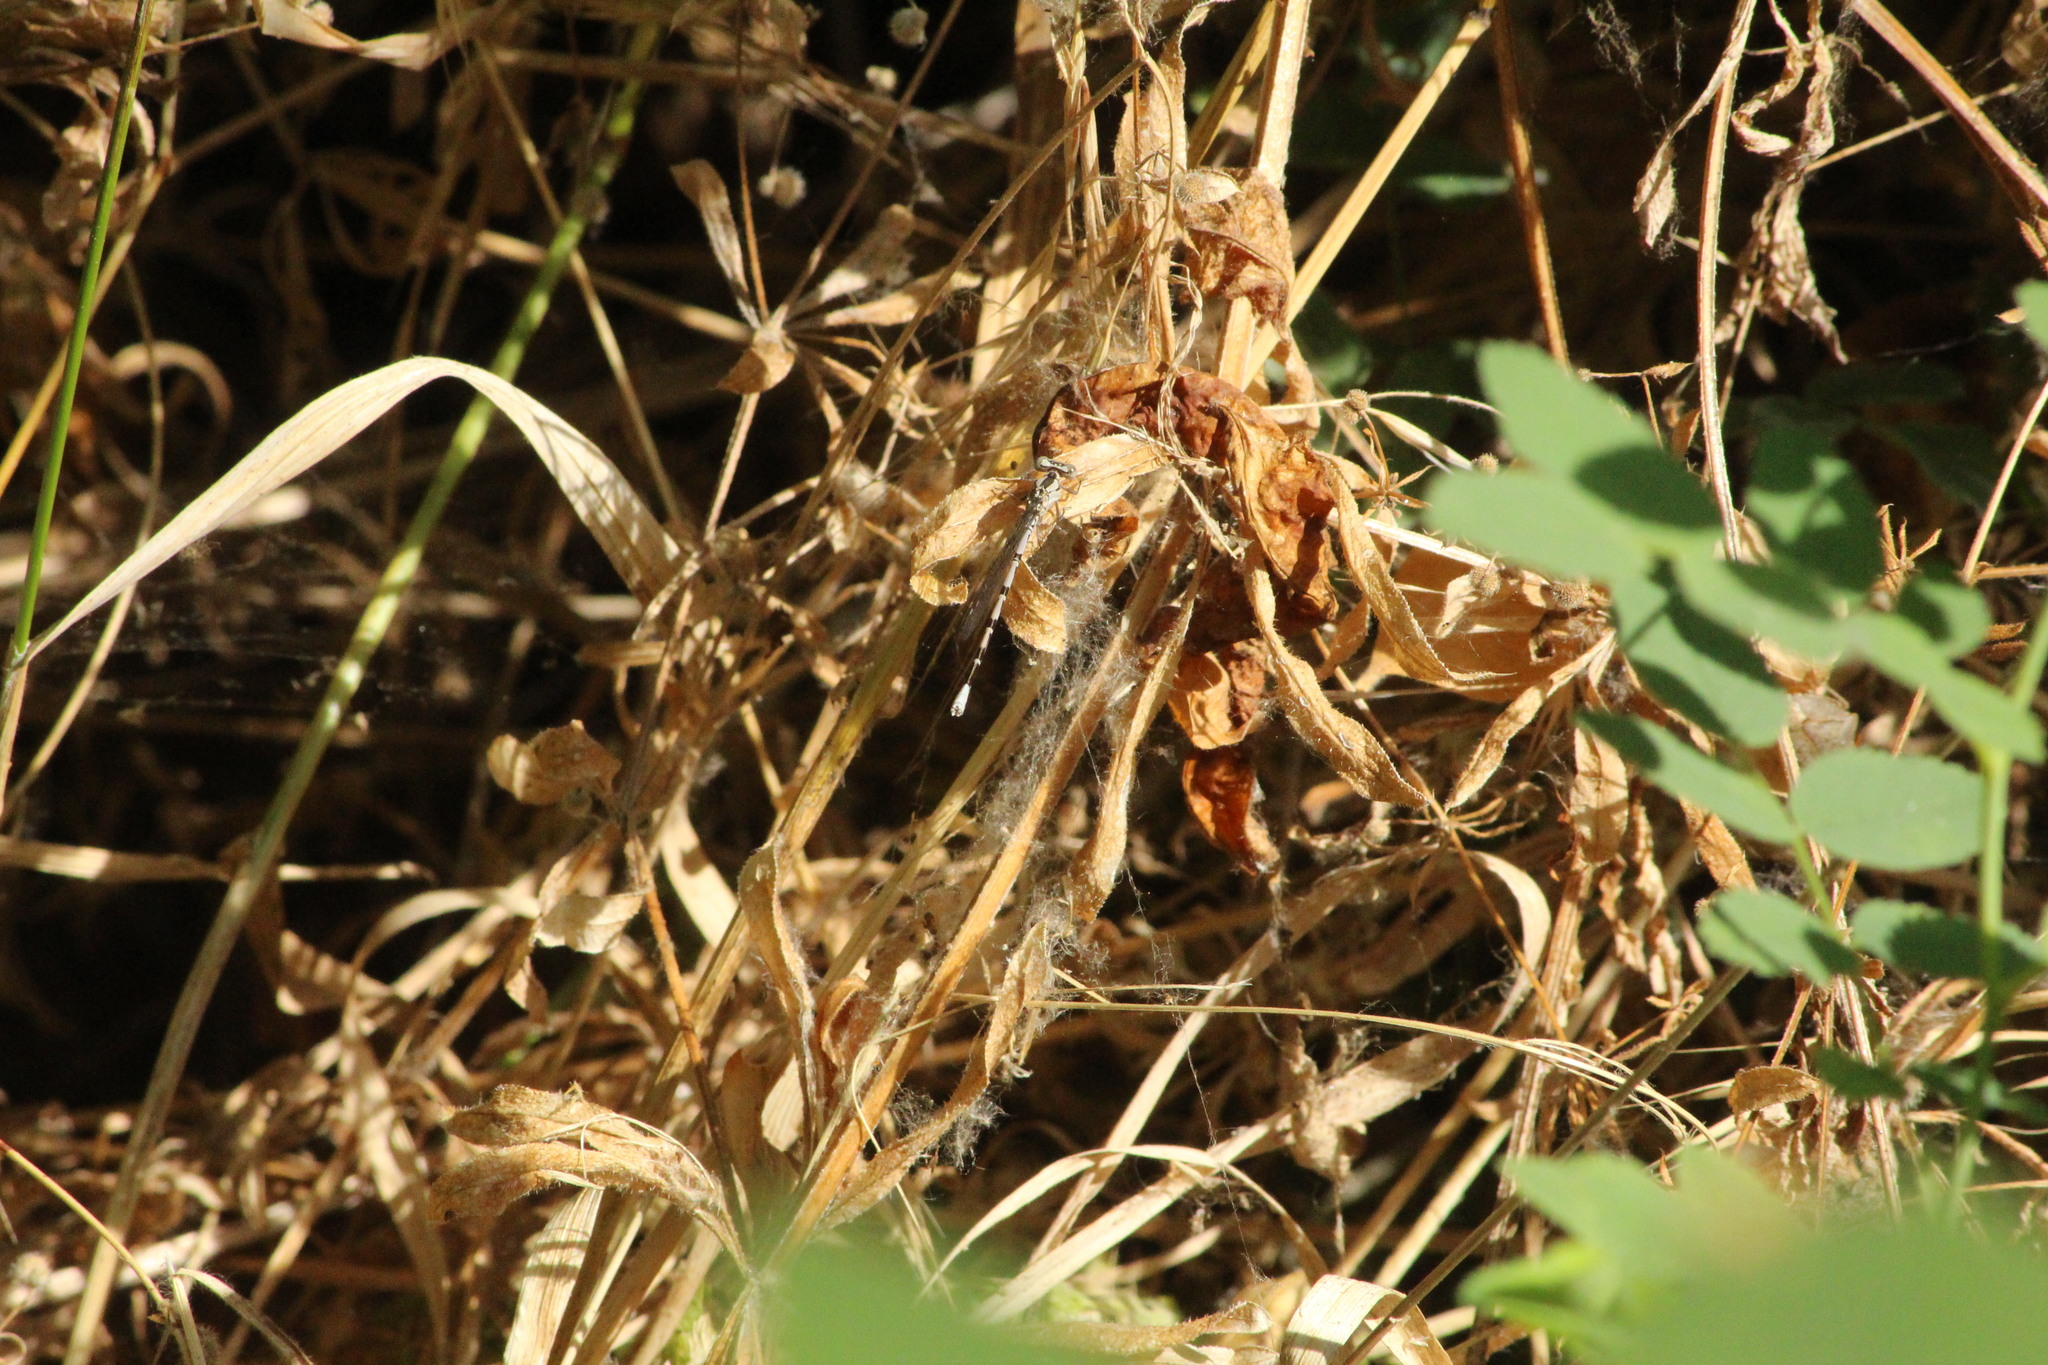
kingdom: Animalia
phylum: Arthropoda
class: Insecta
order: Odonata
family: Coenagrionidae
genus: Argia
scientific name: Argia vivida
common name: Vivid dancer
